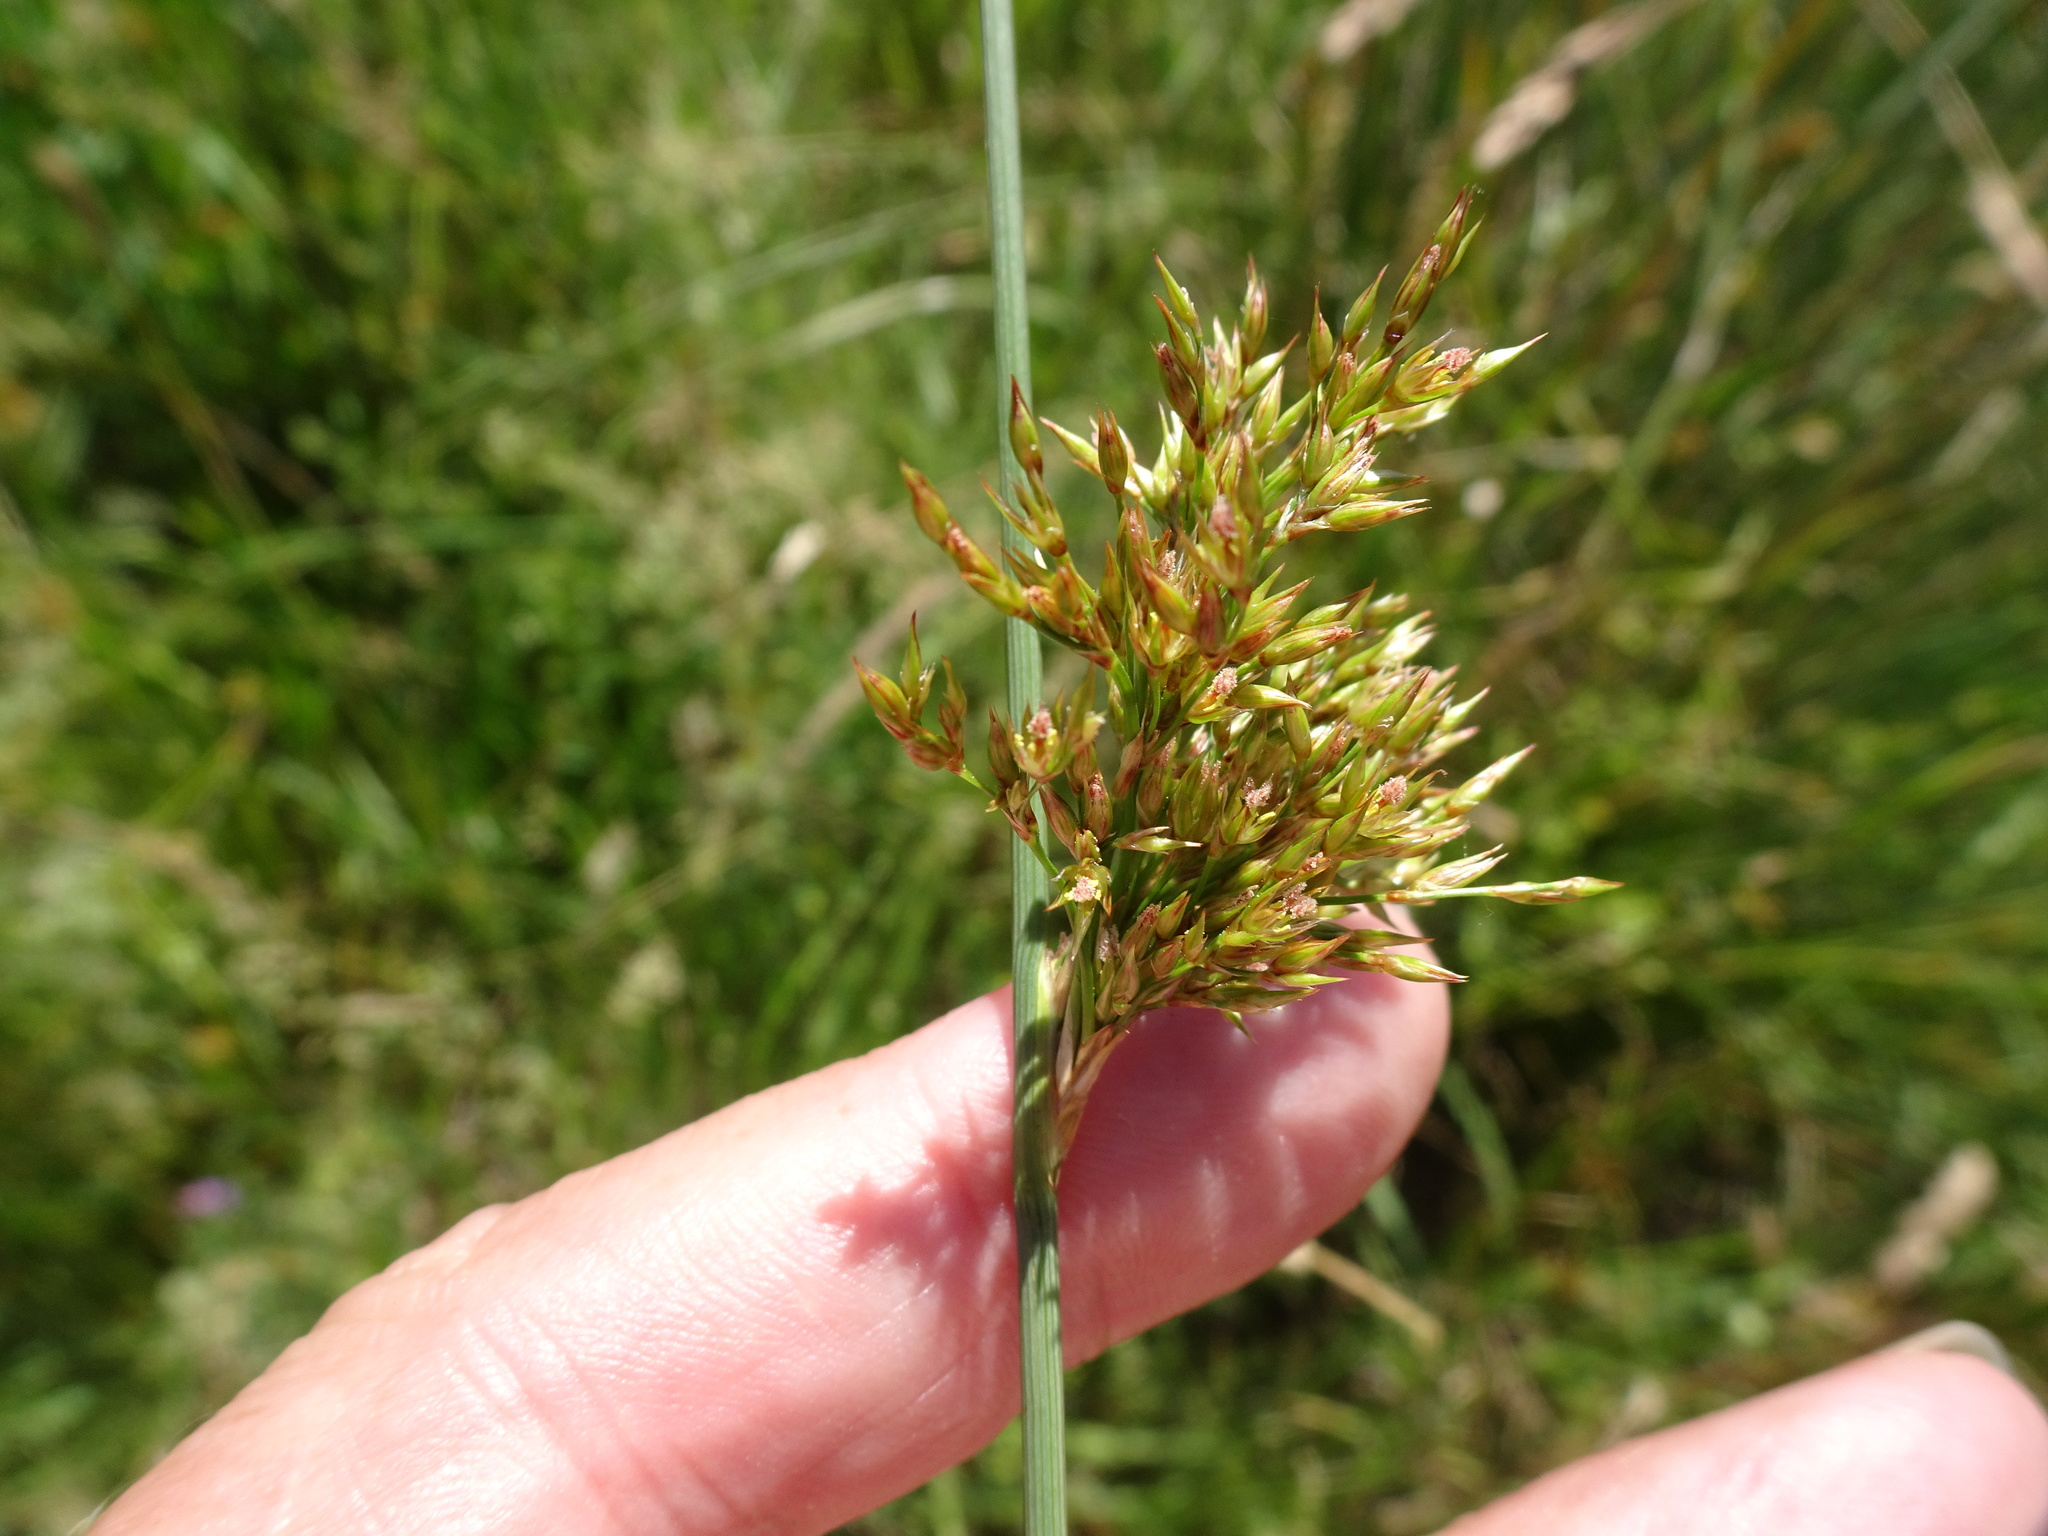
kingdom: Plantae
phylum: Tracheophyta
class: Liliopsida
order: Poales
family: Juncaceae
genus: Juncus
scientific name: Juncus inflexus
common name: Hard rush
